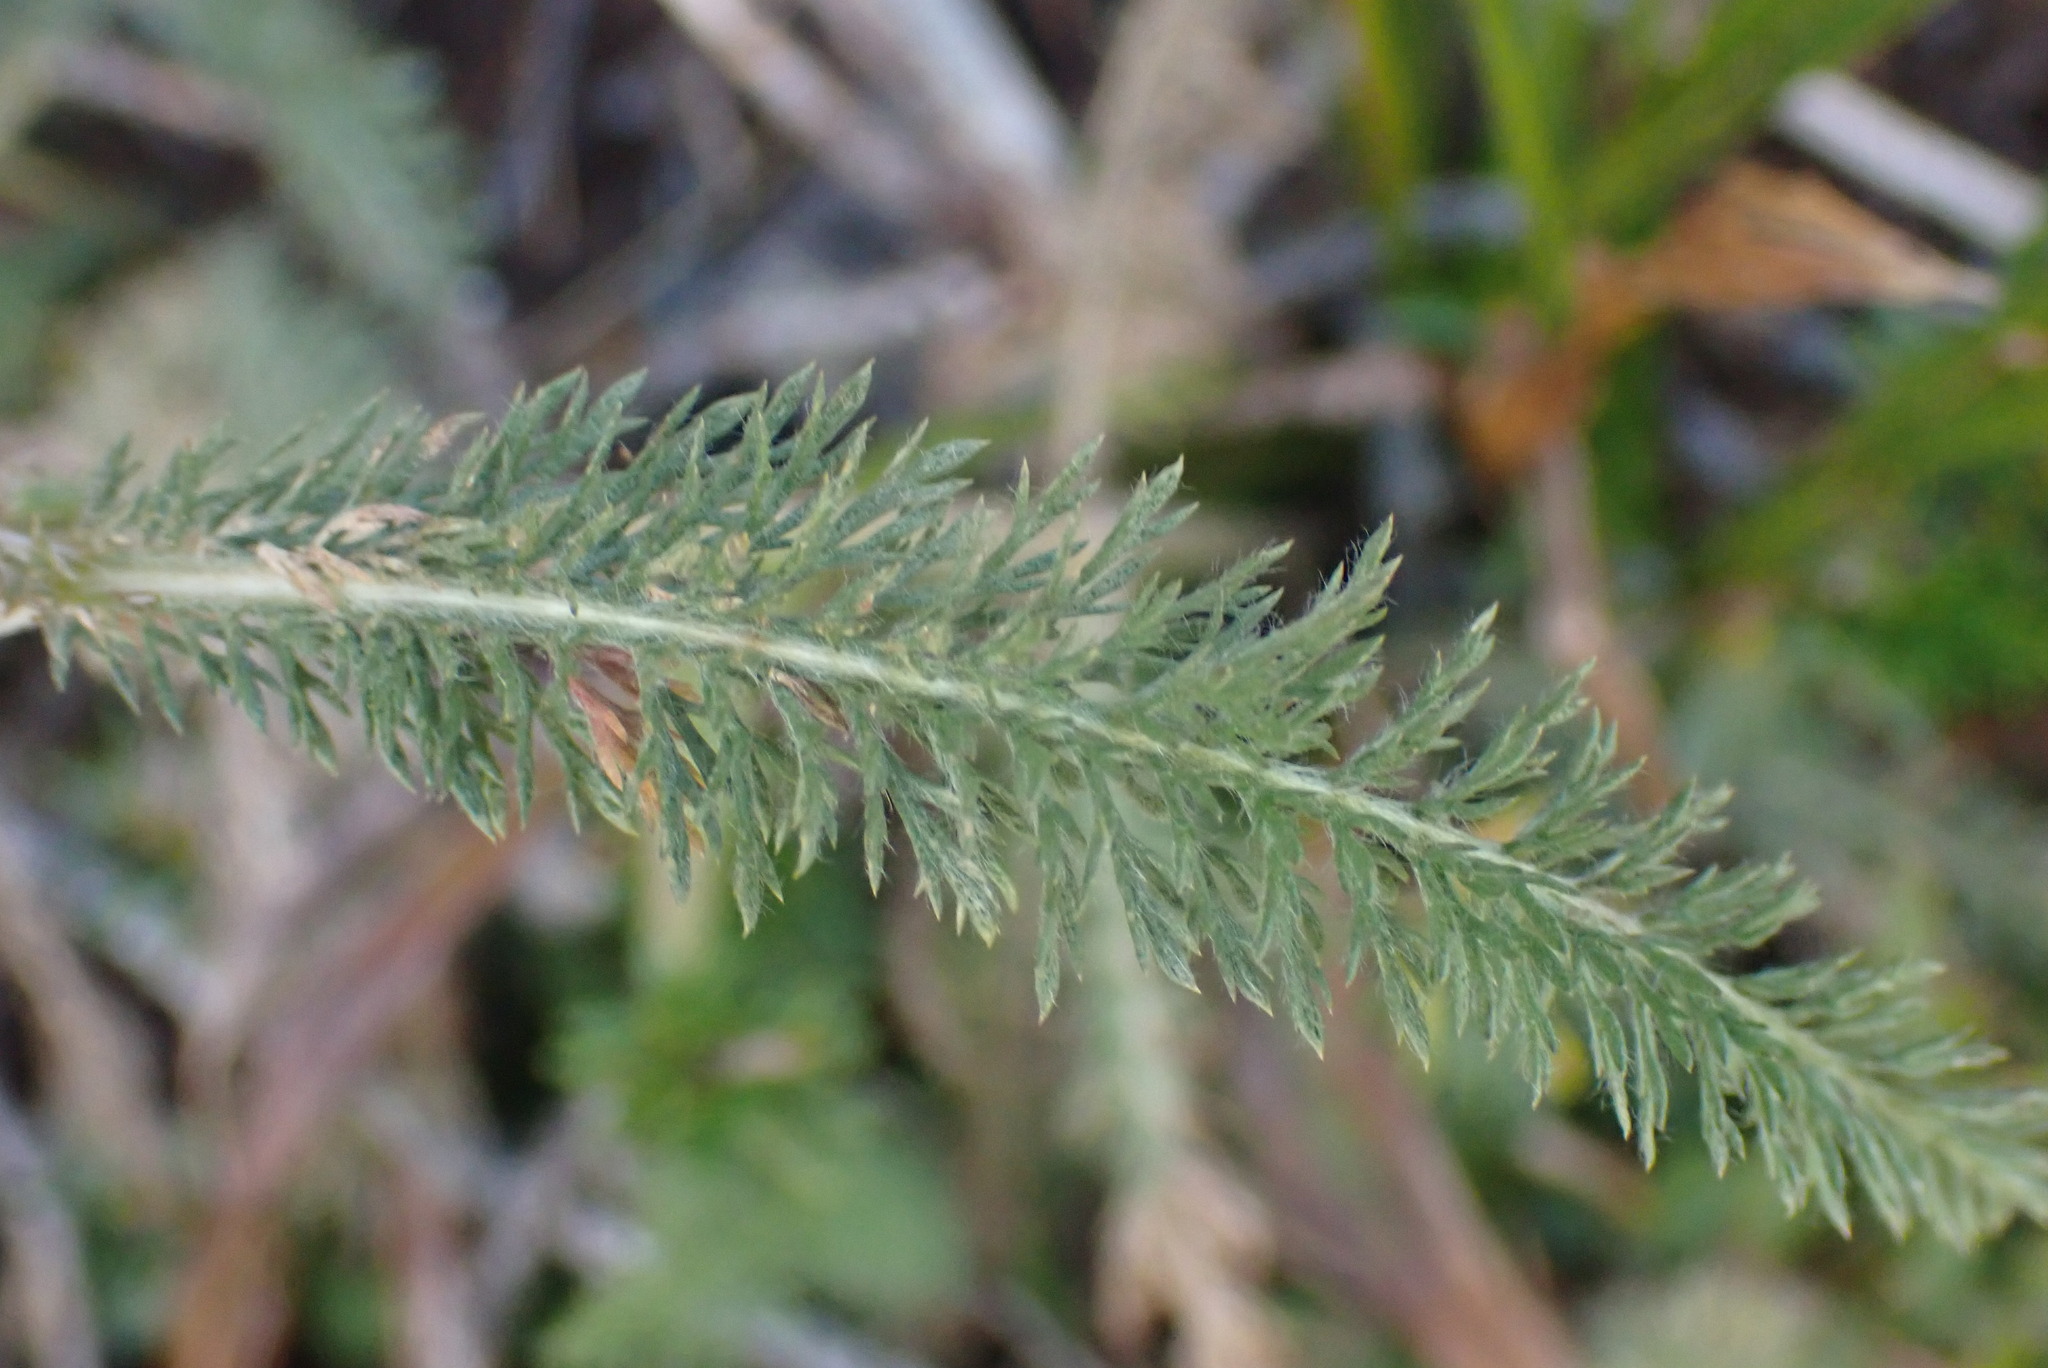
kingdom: Plantae
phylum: Tracheophyta
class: Magnoliopsida
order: Asterales
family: Asteraceae
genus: Achillea
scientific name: Achillea millefolium
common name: Yarrow
